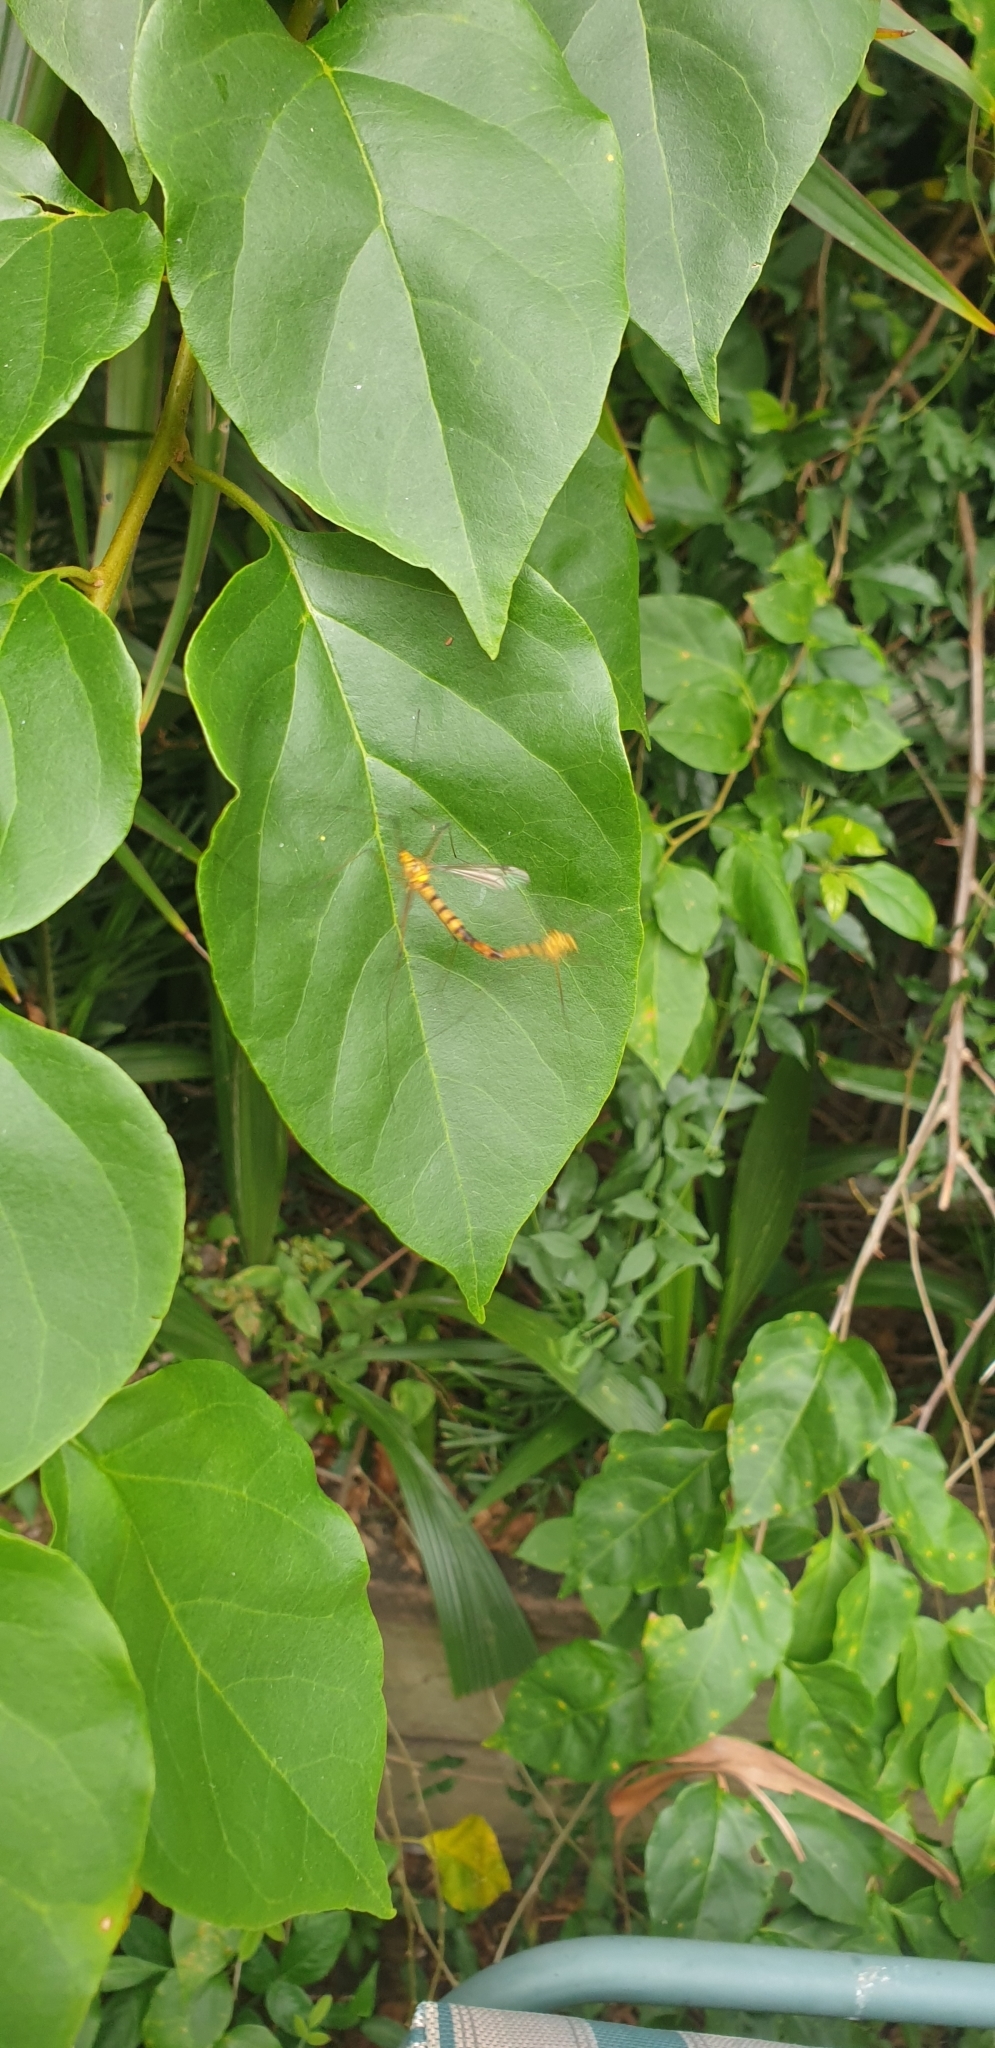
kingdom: Animalia
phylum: Arthropoda
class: Insecta
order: Diptera
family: Tipulidae
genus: Nephrotoma
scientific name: Nephrotoma australasiae
